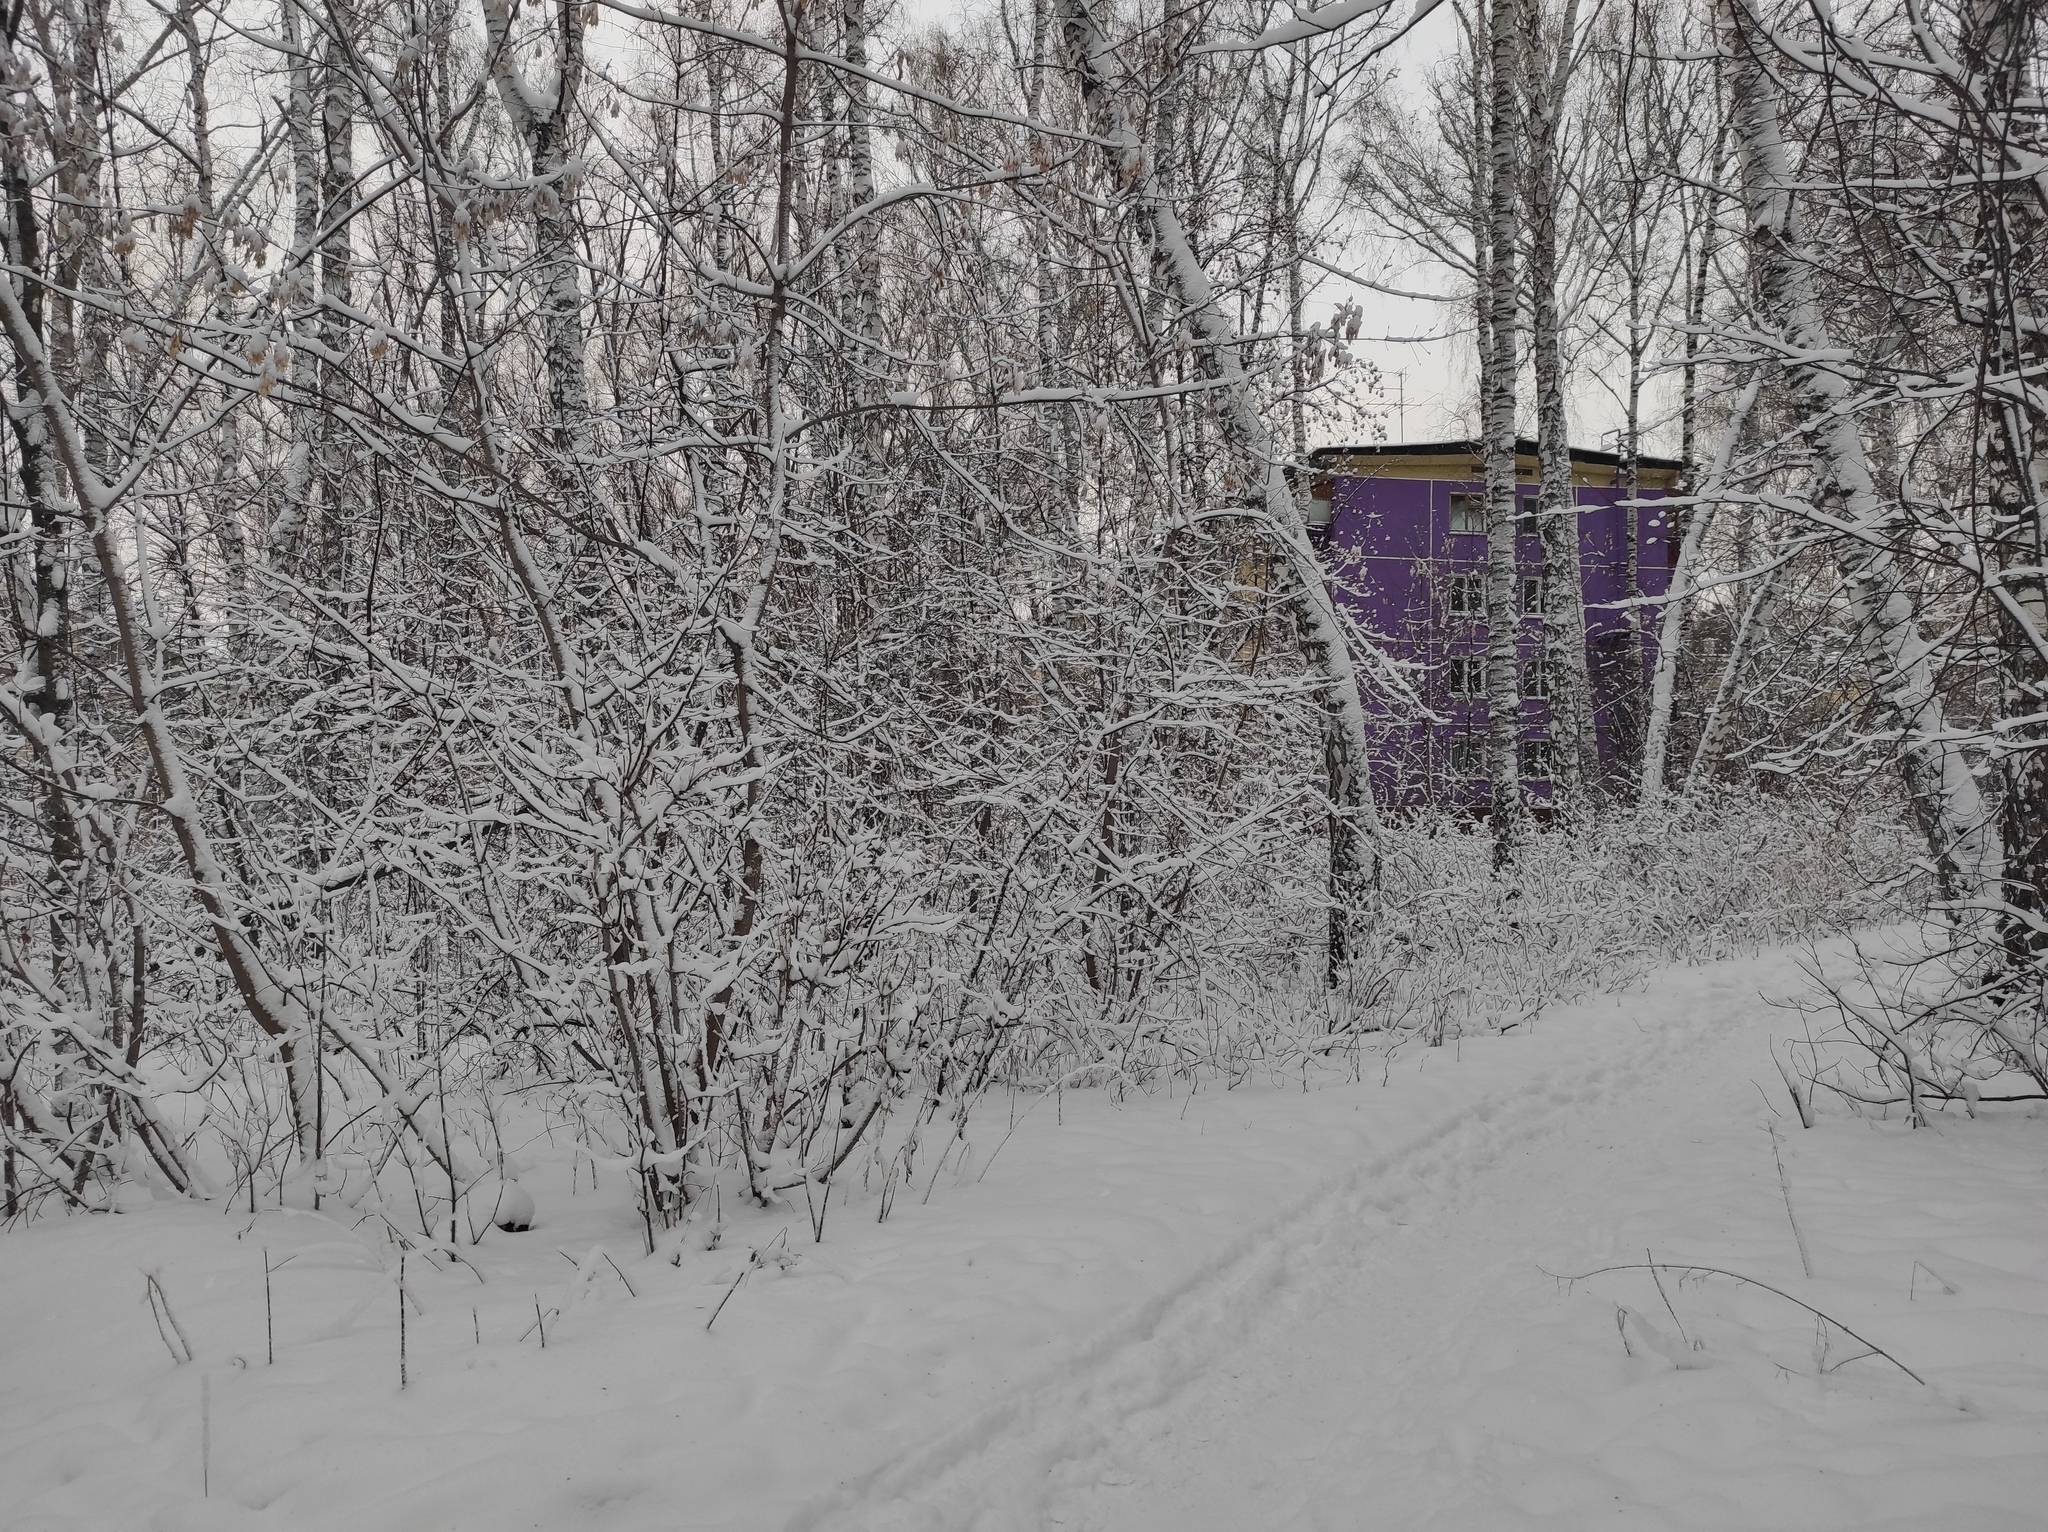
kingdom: Plantae
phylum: Tracheophyta
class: Magnoliopsida
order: Fagales
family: Betulaceae
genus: Betula
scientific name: Betula pendula
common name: Silver birch
